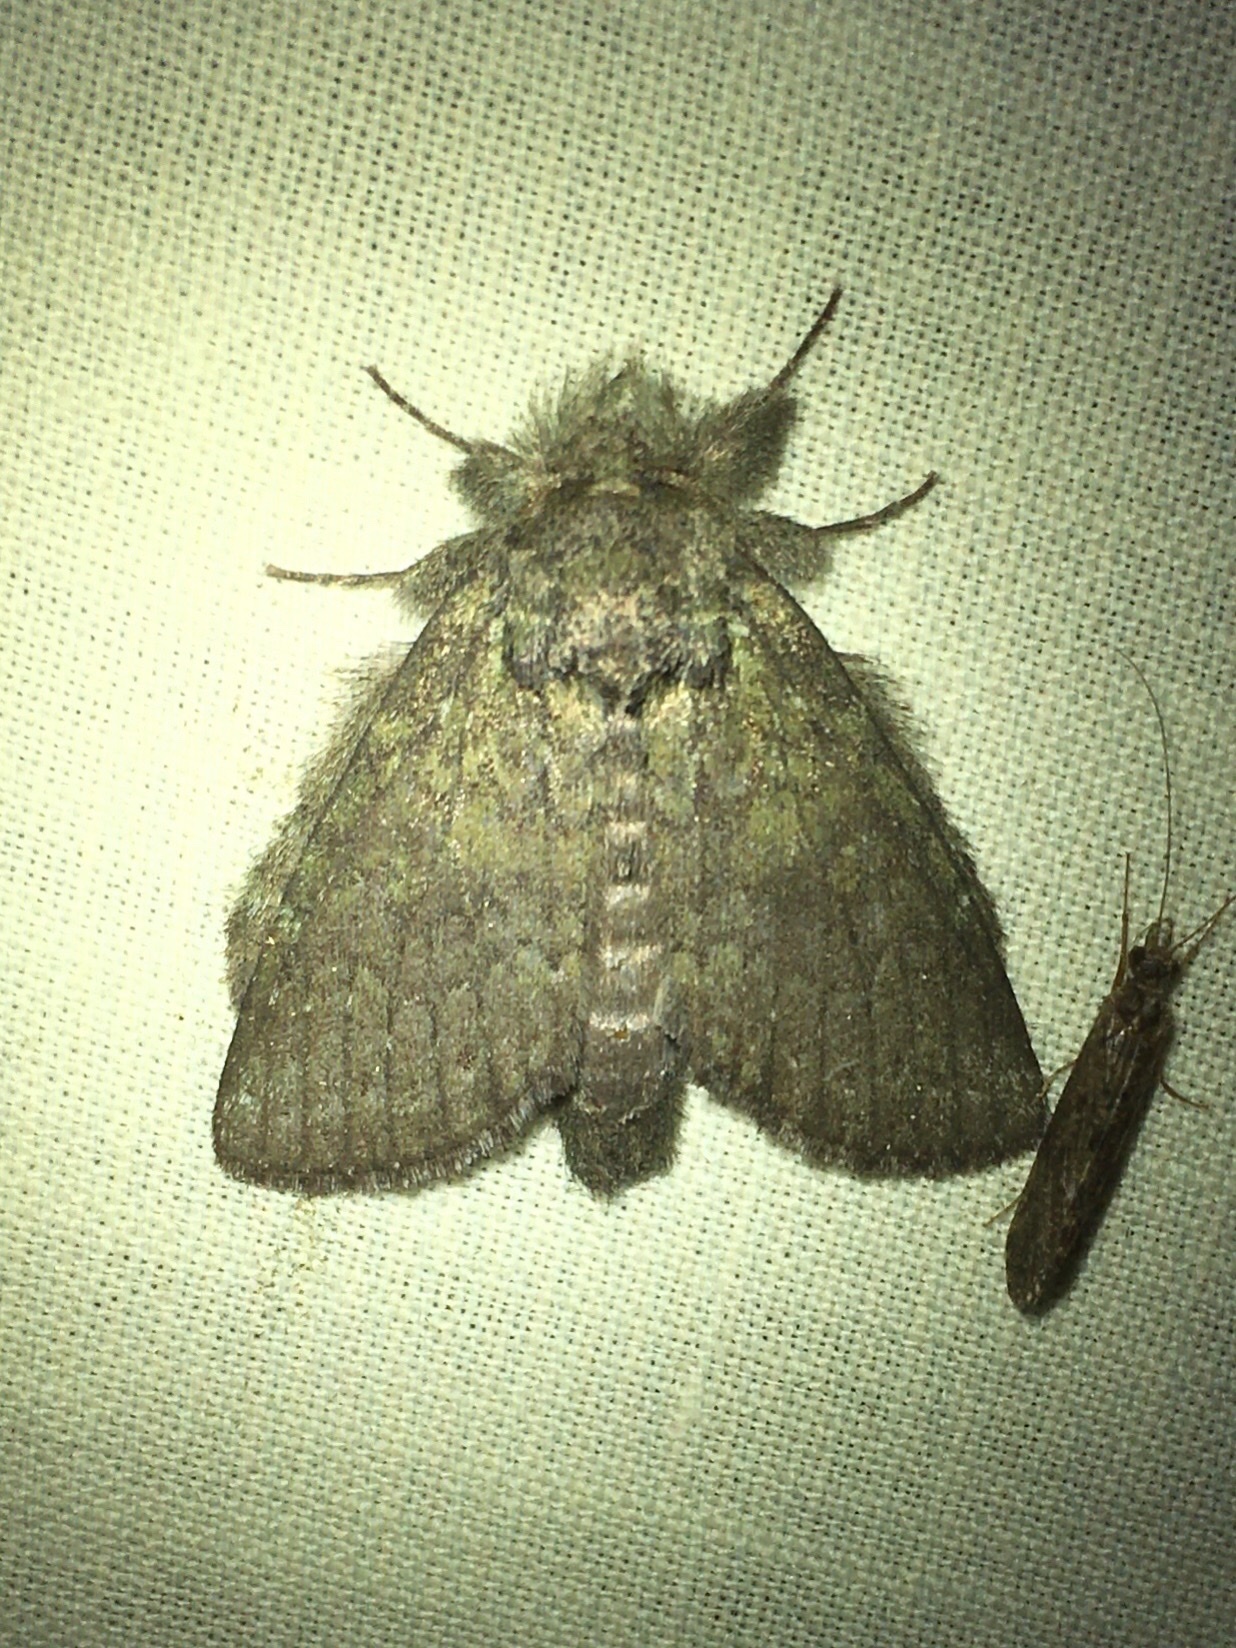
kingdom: Animalia
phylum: Arthropoda
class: Insecta
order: Lepidoptera
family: Notodontidae
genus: Disphragis
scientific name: Disphragis Cecrita guttivitta
